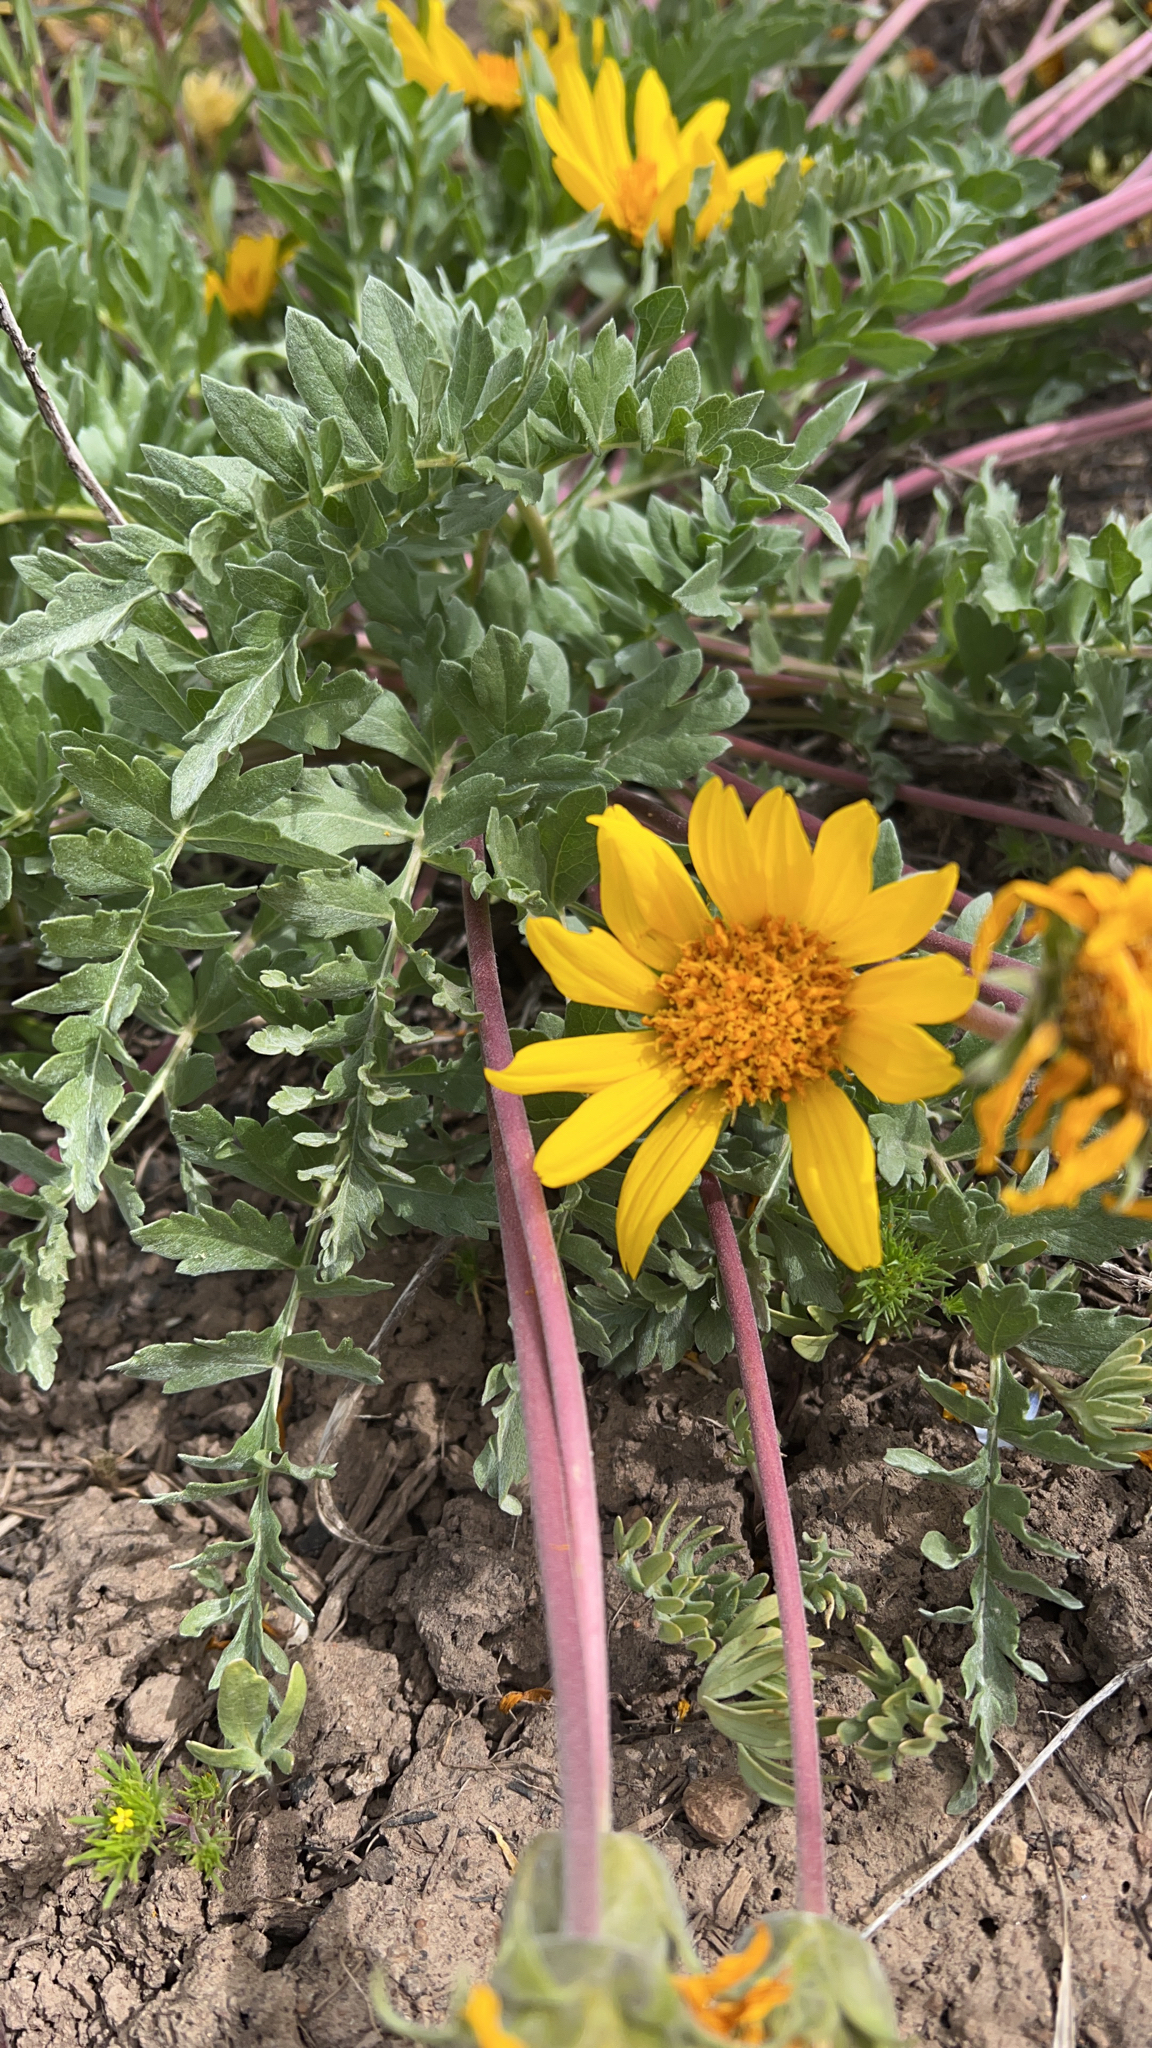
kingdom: Plantae
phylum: Tracheophyta
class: Magnoliopsida
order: Asterales
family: Asteraceae
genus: Balsamorhiza
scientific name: Balsamorhiza hookeri
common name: Hooker's balsamroot
